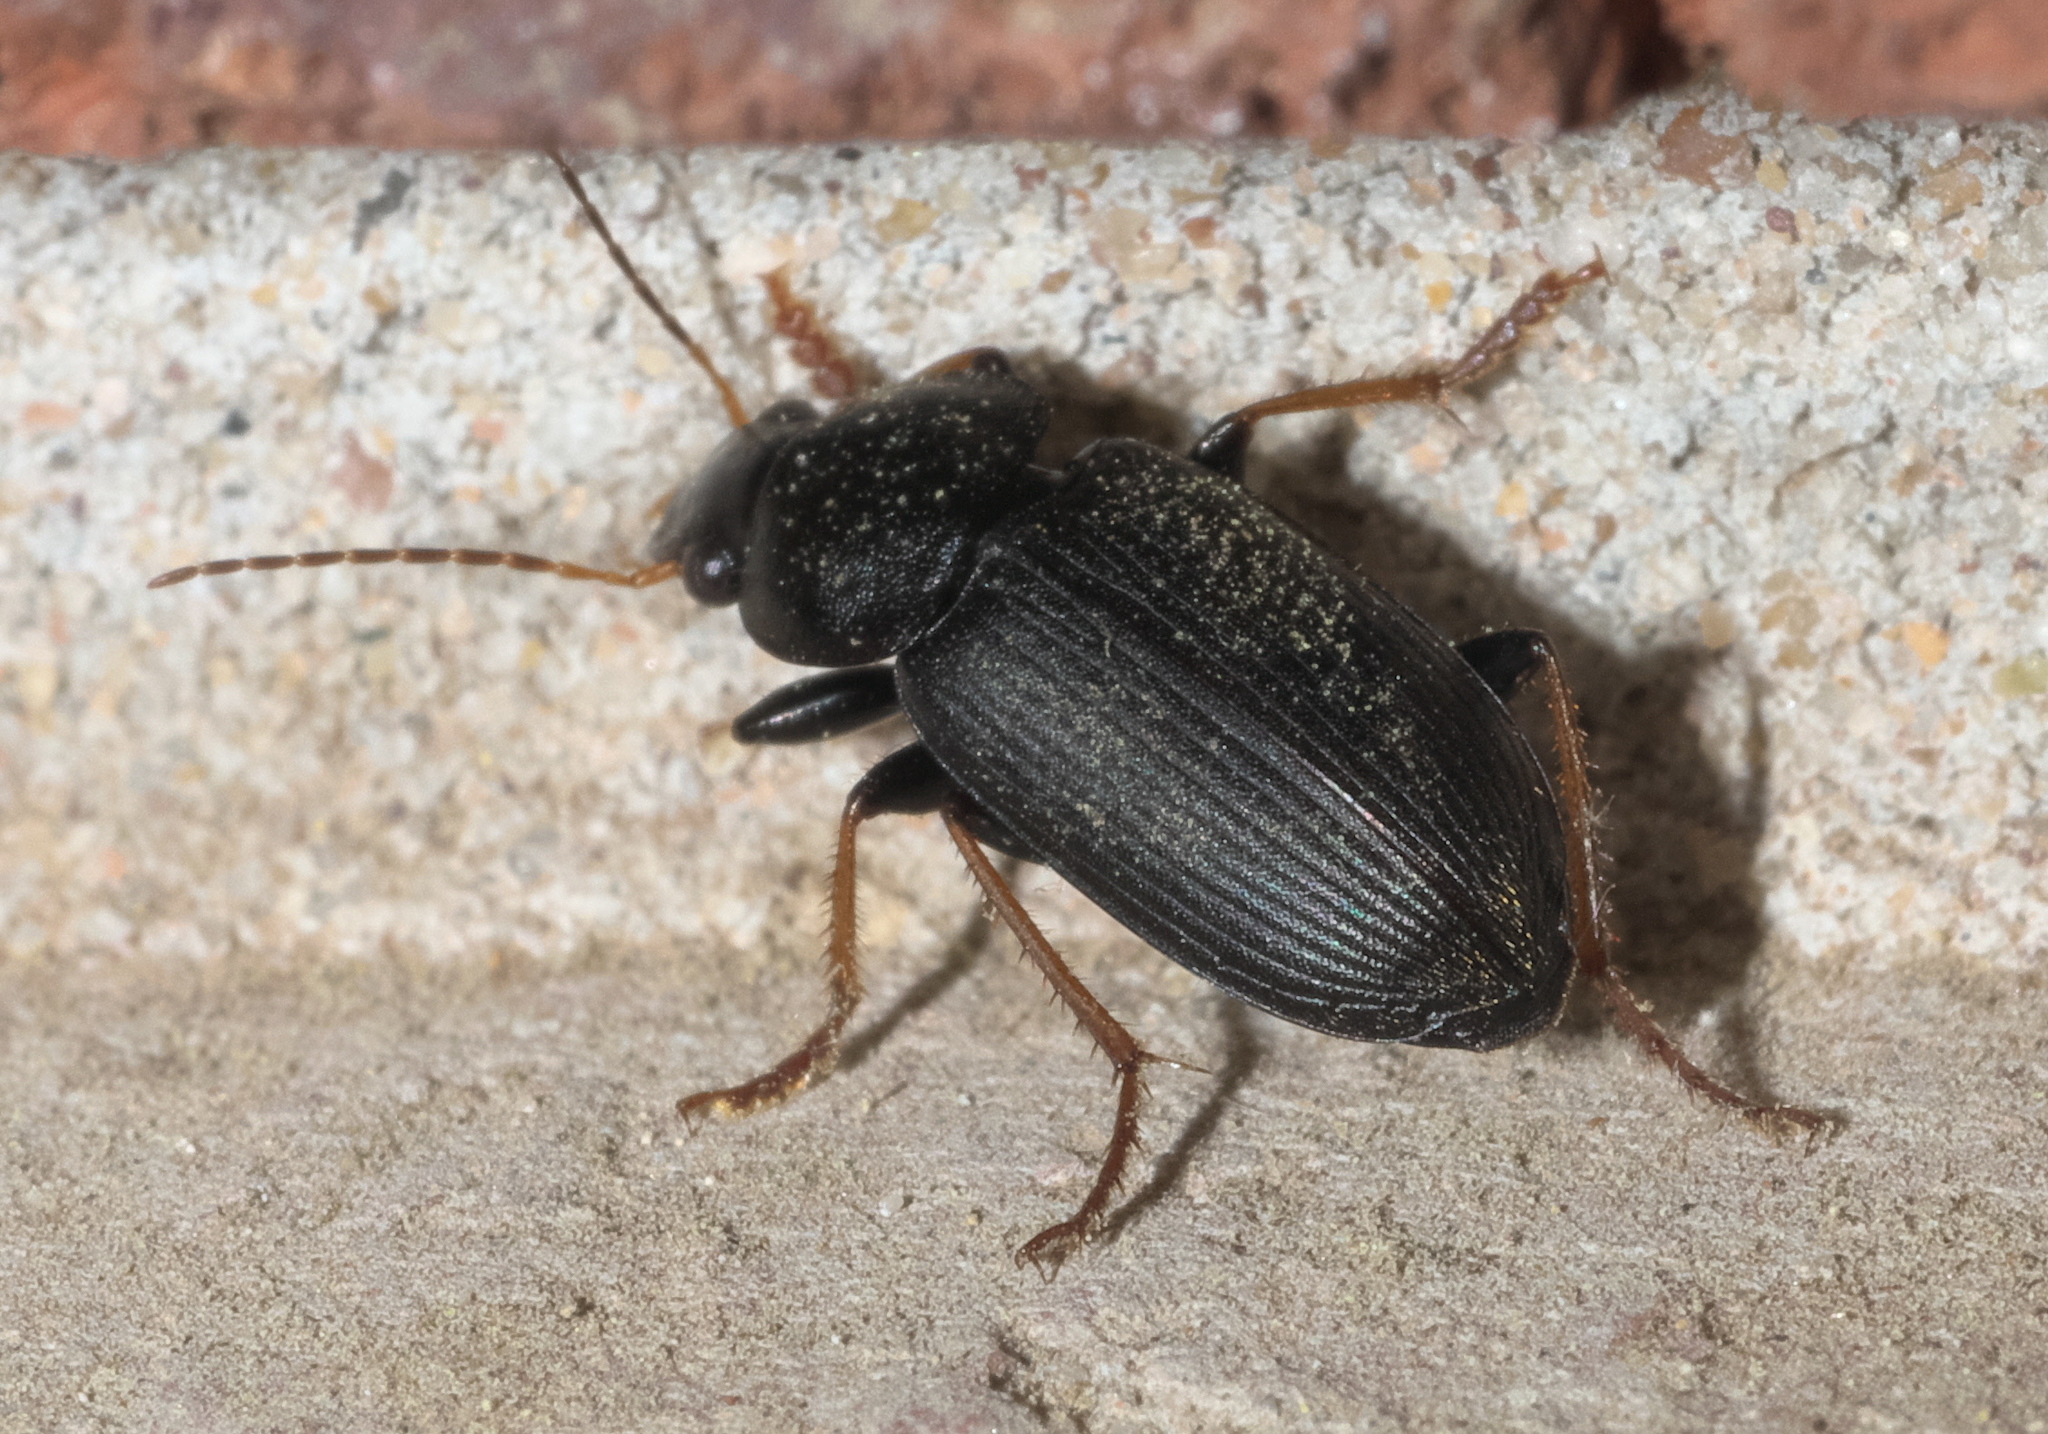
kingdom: Animalia
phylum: Arthropoda
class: Insecta
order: Coleoptera
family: Carabidae
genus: Amphasia
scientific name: Amphasia sericea
